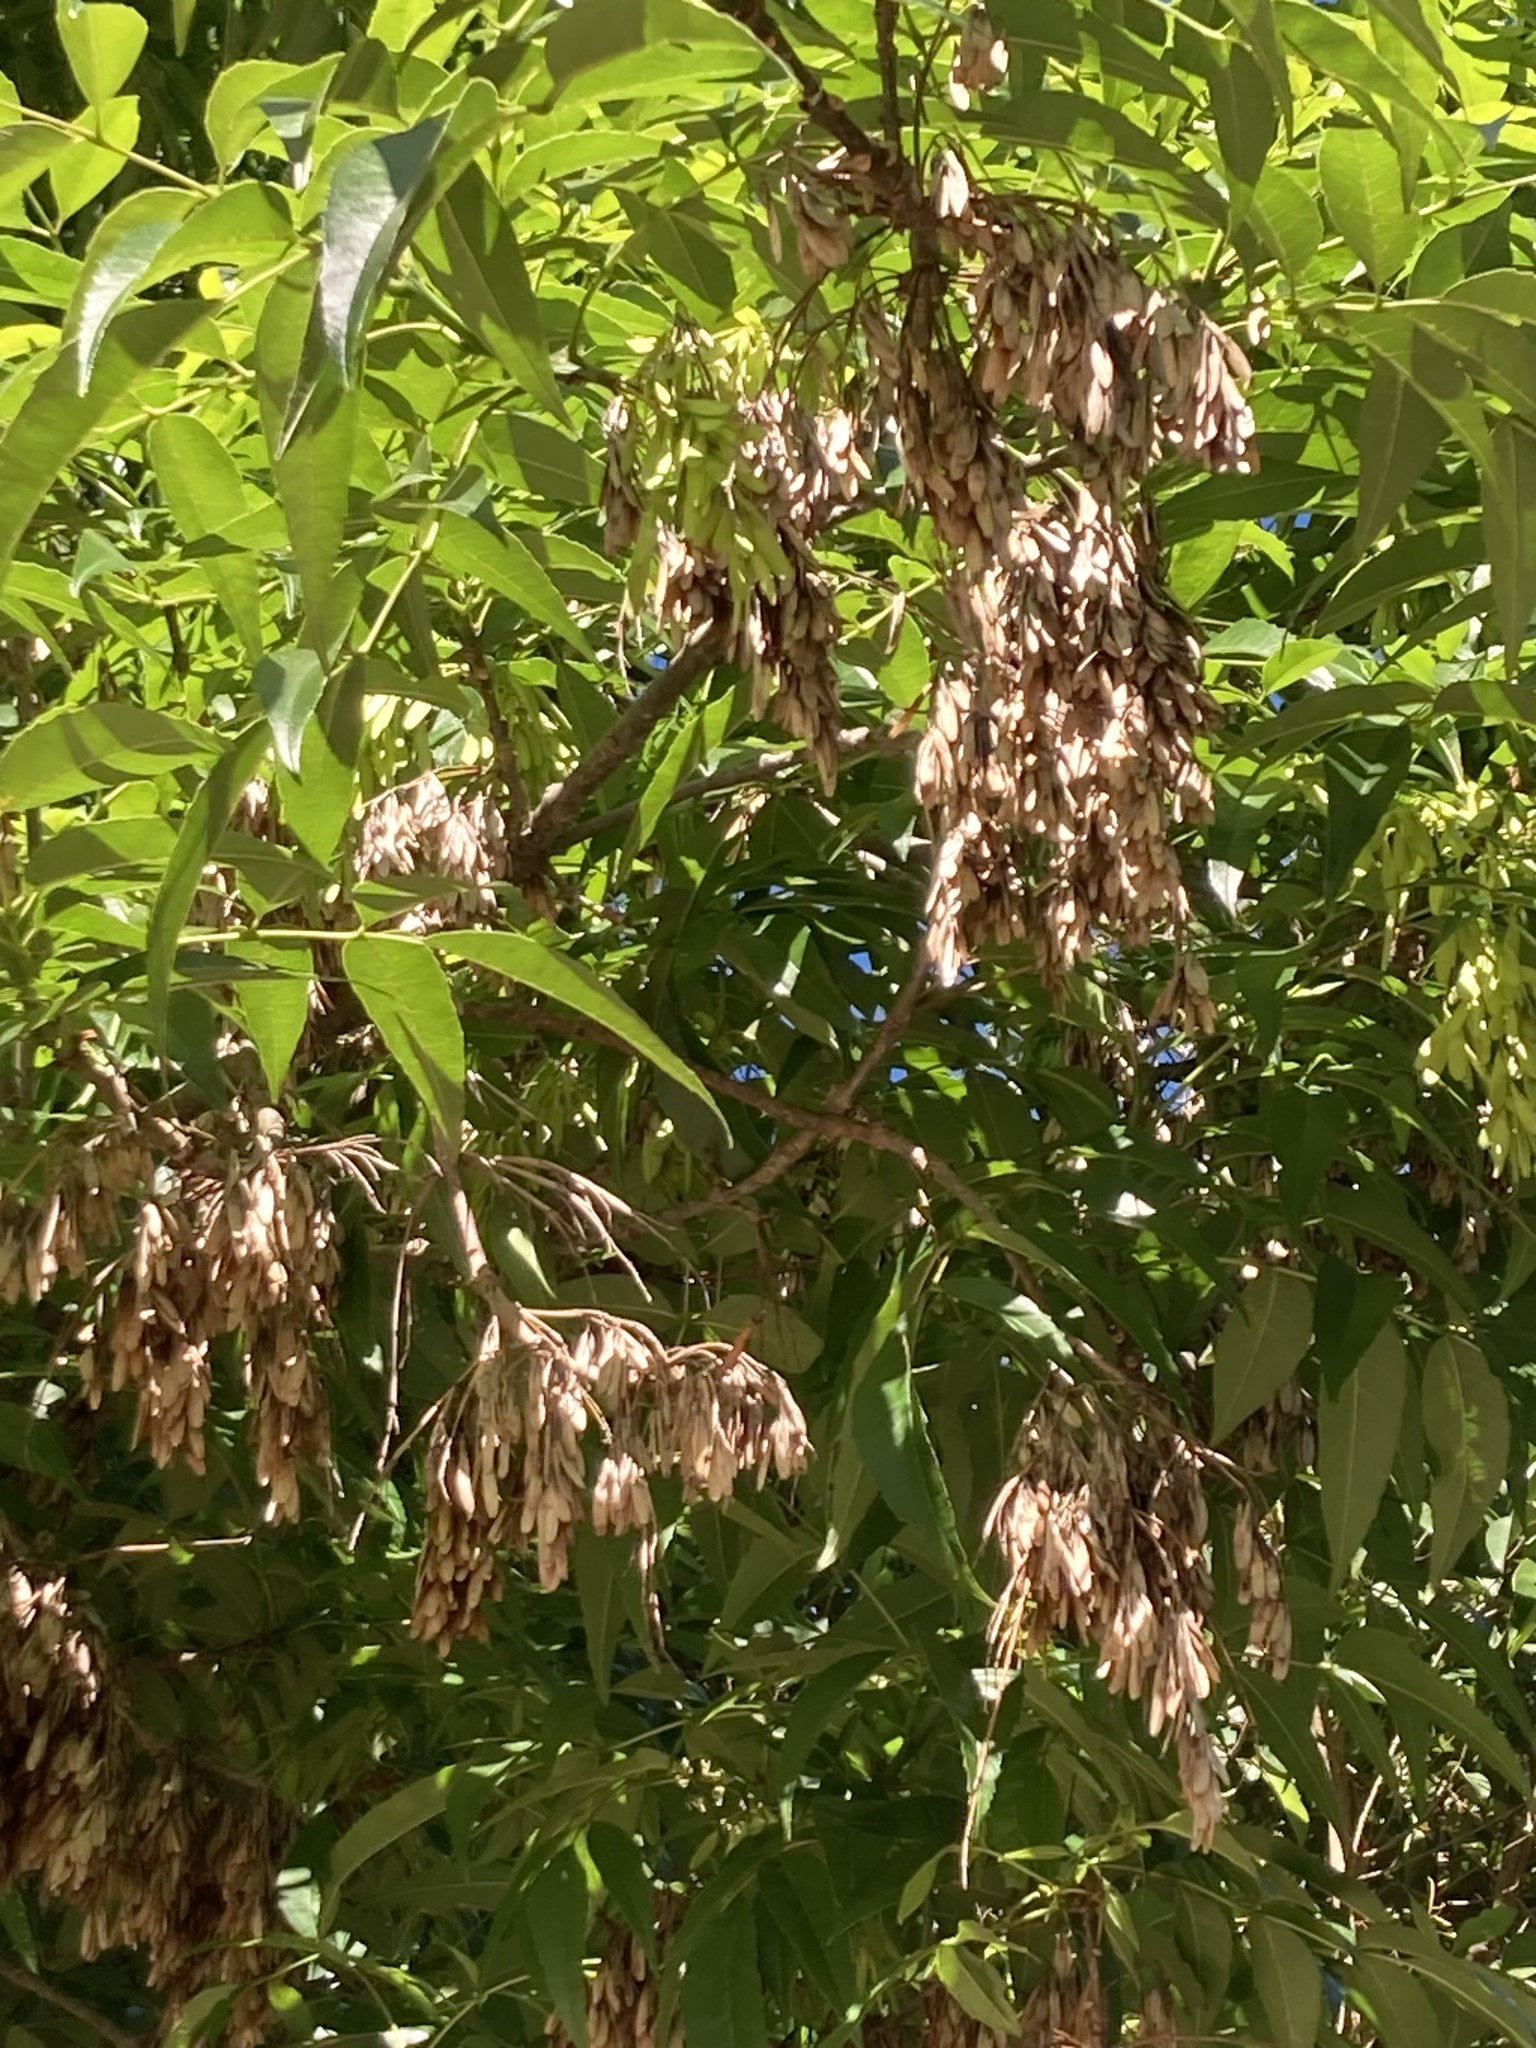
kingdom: Plantae
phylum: Tracheophyta
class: Magnoliopsida
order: Lamiales
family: Oleaceae
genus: Fraxinus
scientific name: Fraxinus uhdei
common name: Shamel ash
